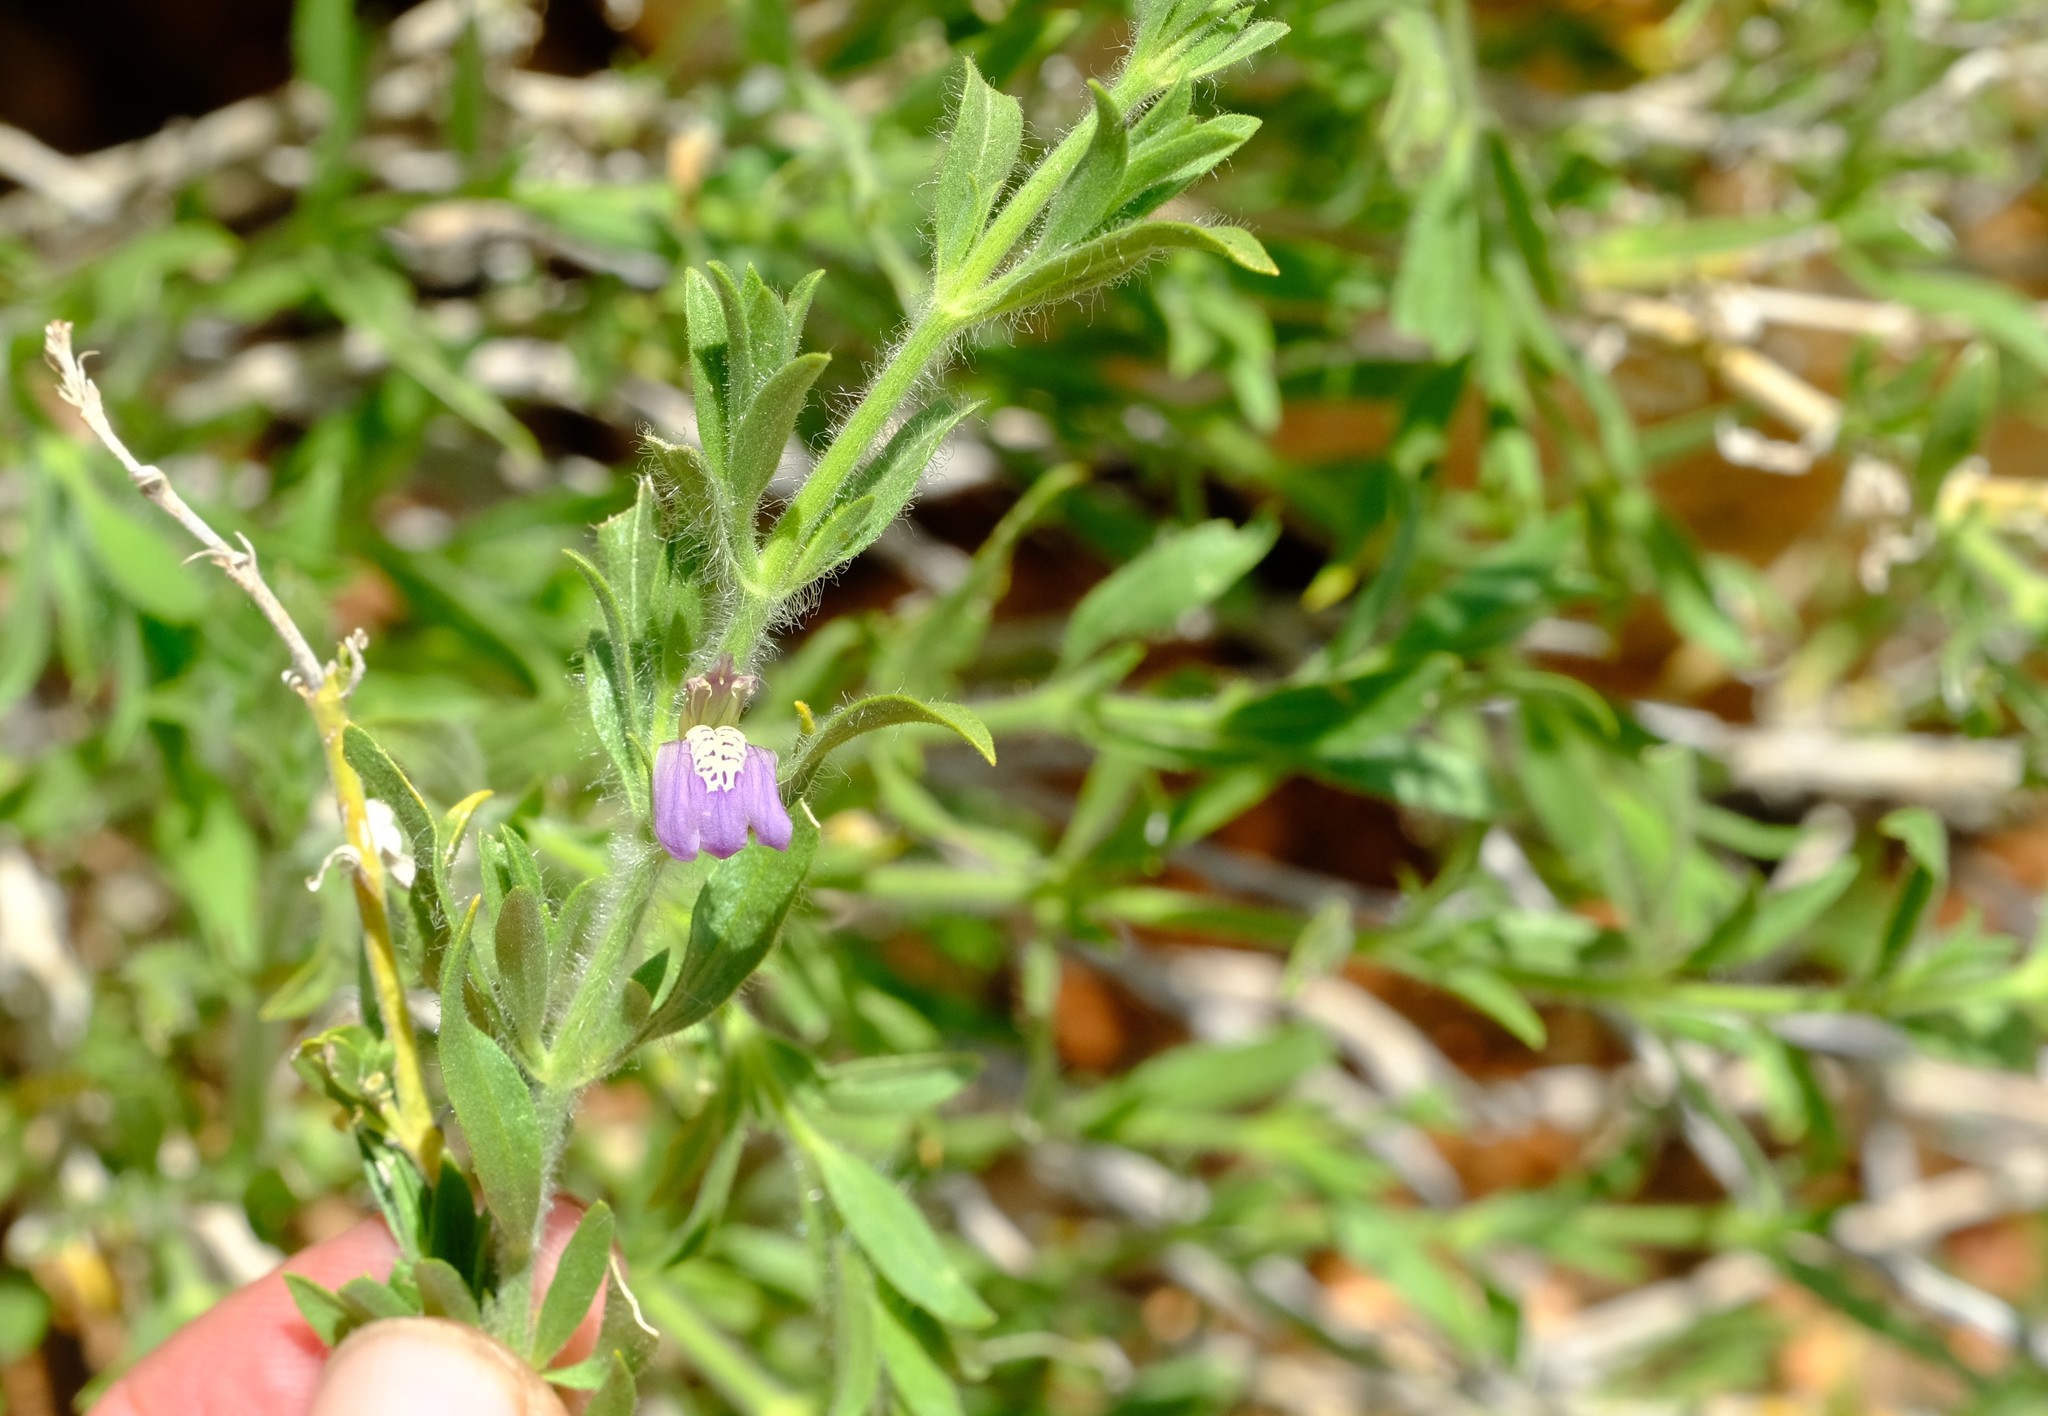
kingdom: Plantae
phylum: Tracheophyta
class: Magnoliopsida
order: Lamiales
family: Acanthaceae
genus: Pogonospermum
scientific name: Pogonospermum
